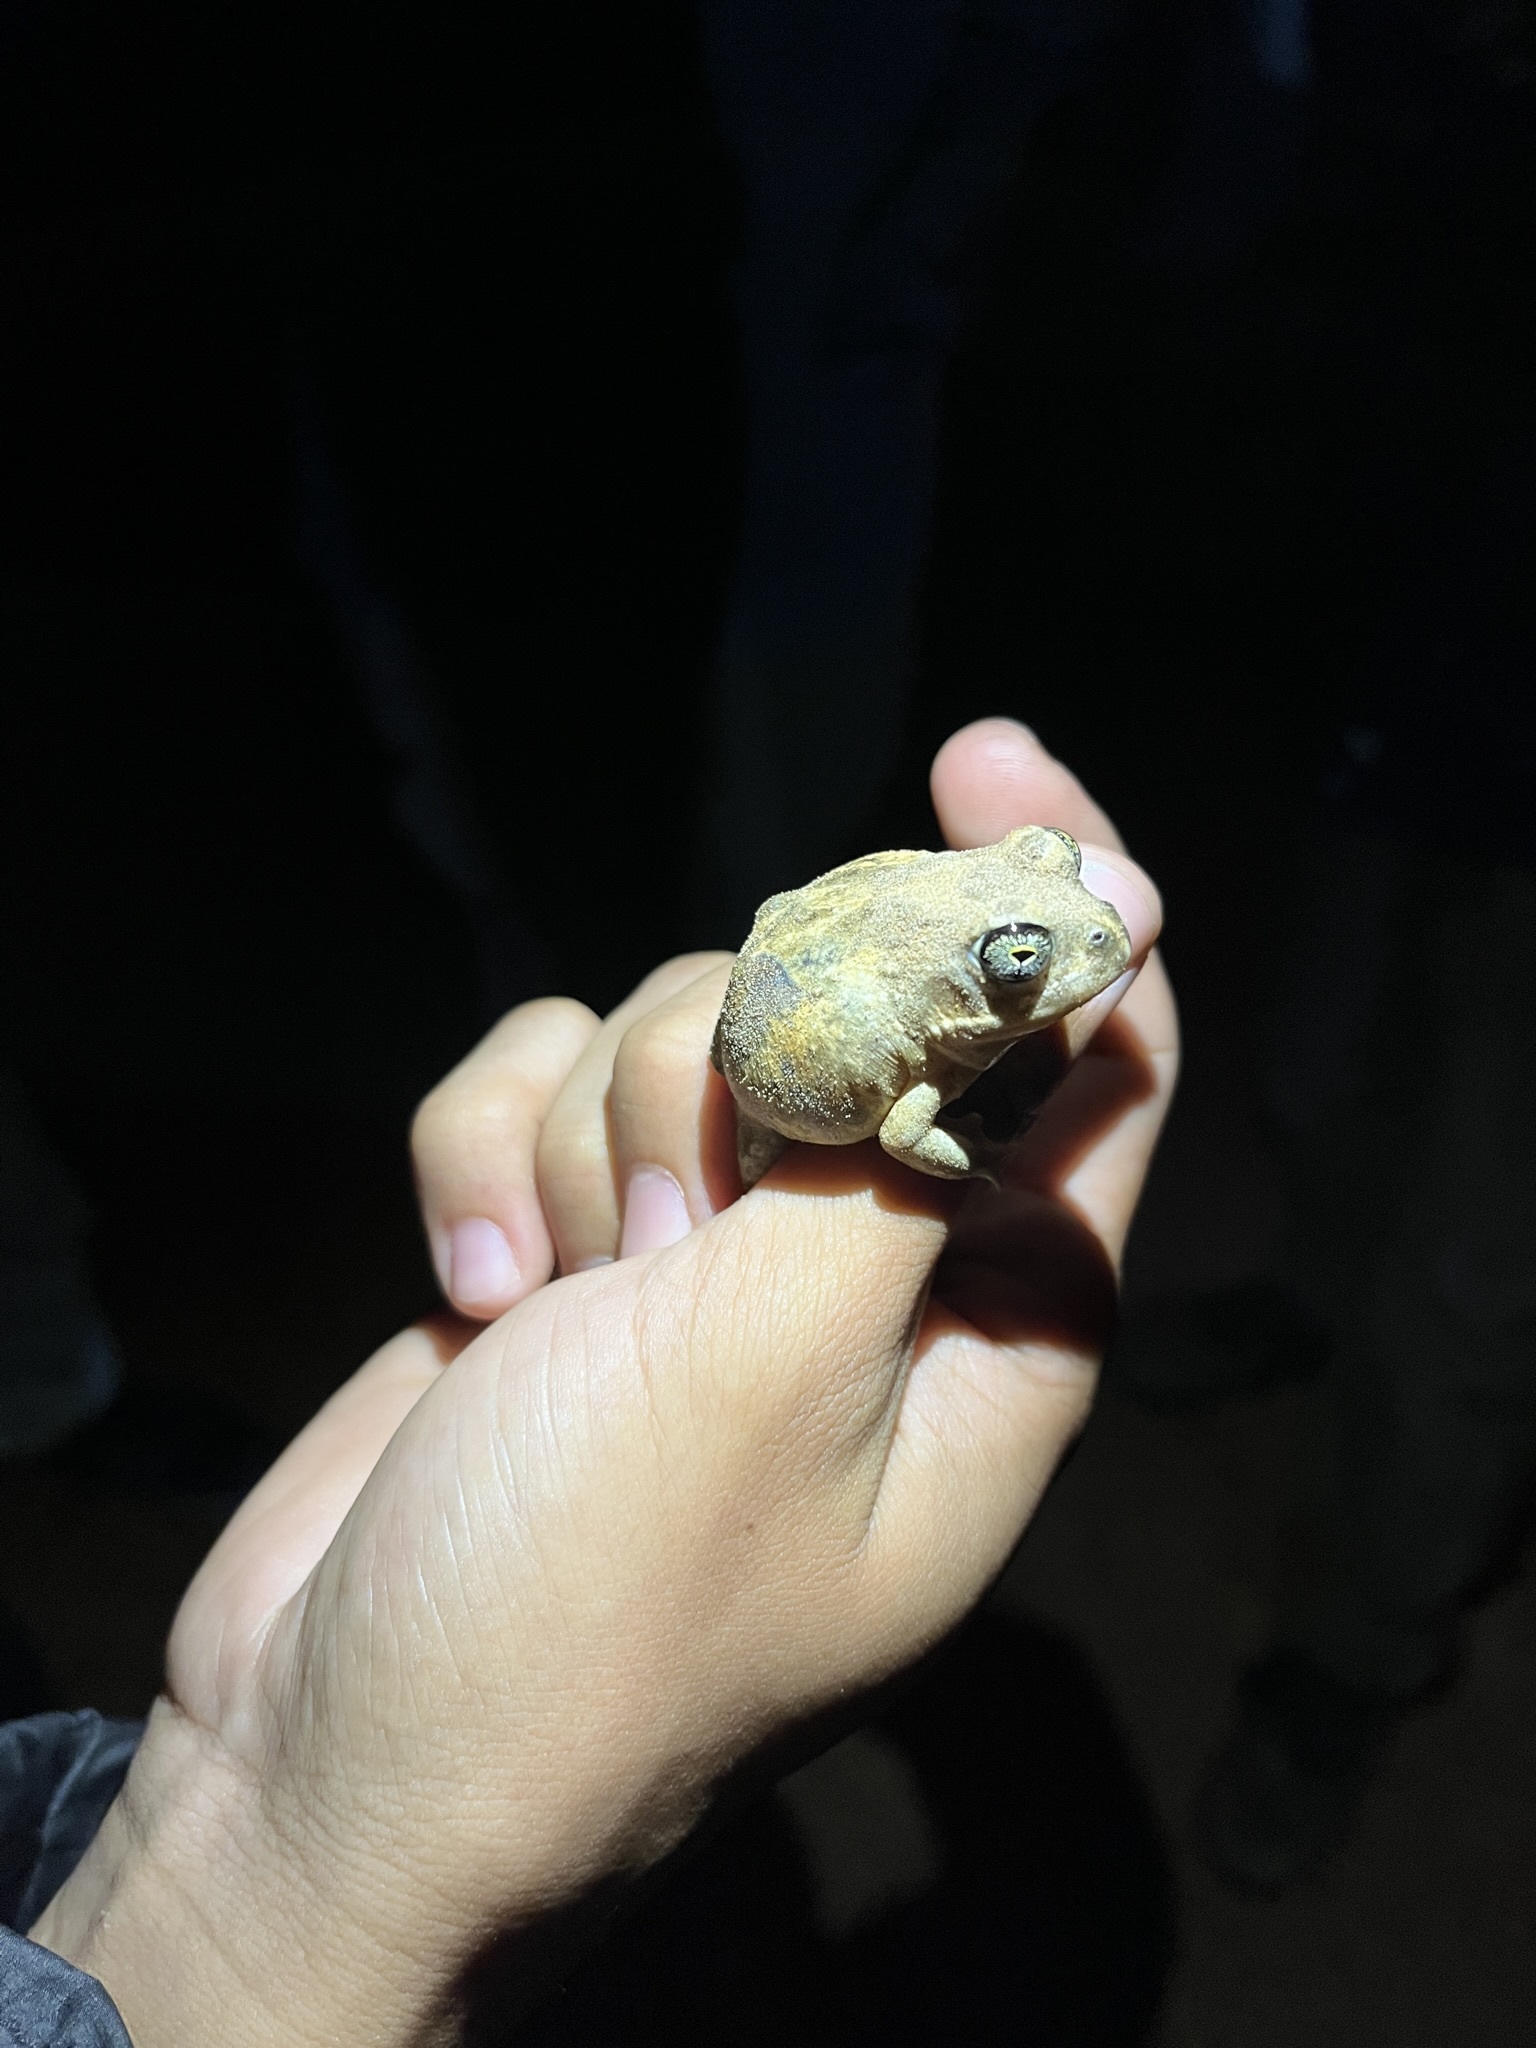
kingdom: Animalia
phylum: Chordata
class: Amphibia
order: Anura
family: Pyxicephalidae
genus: Tomopterna
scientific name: Tomopterna delalandii
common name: Delalande's burrowing bullfrog
